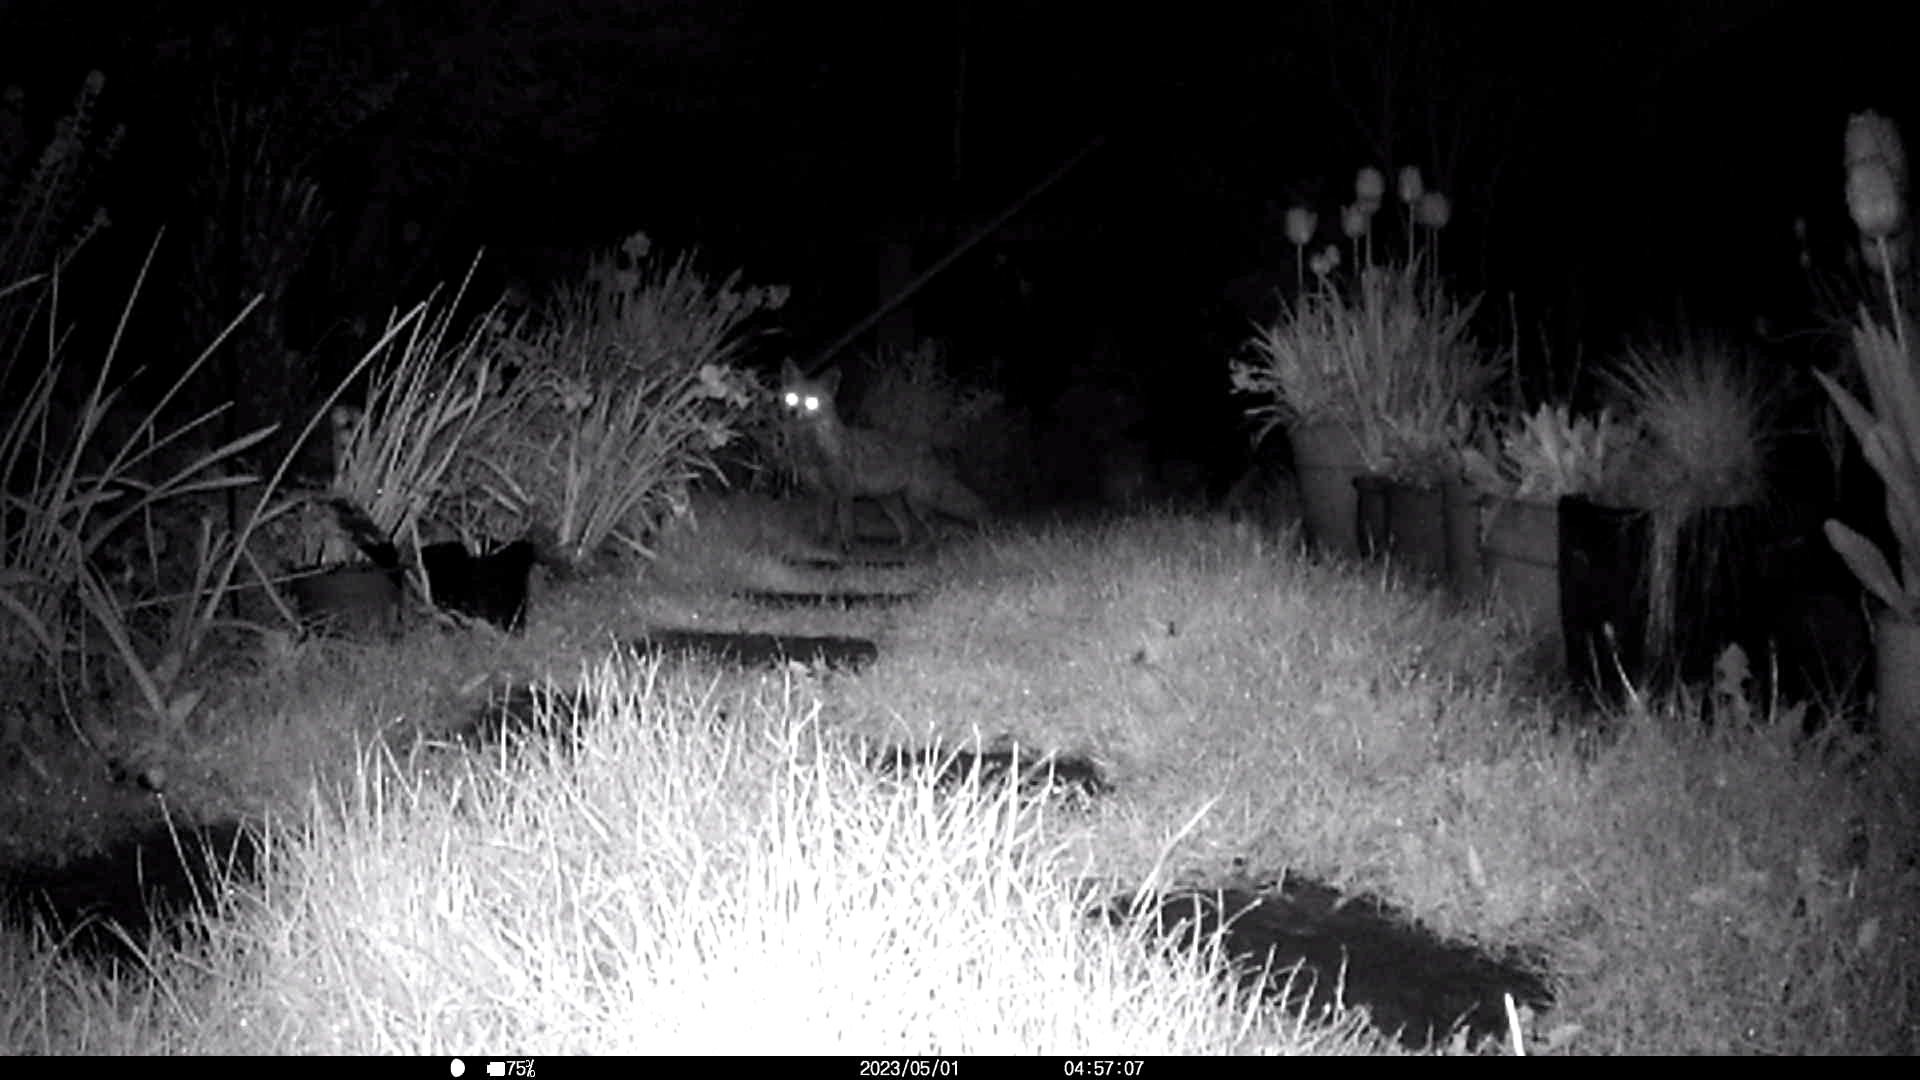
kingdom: Animalia
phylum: Chordata
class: Mammalia
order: Carnivora
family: Canidae
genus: Vulpes
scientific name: Vulpes vulpes
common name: Red fox
